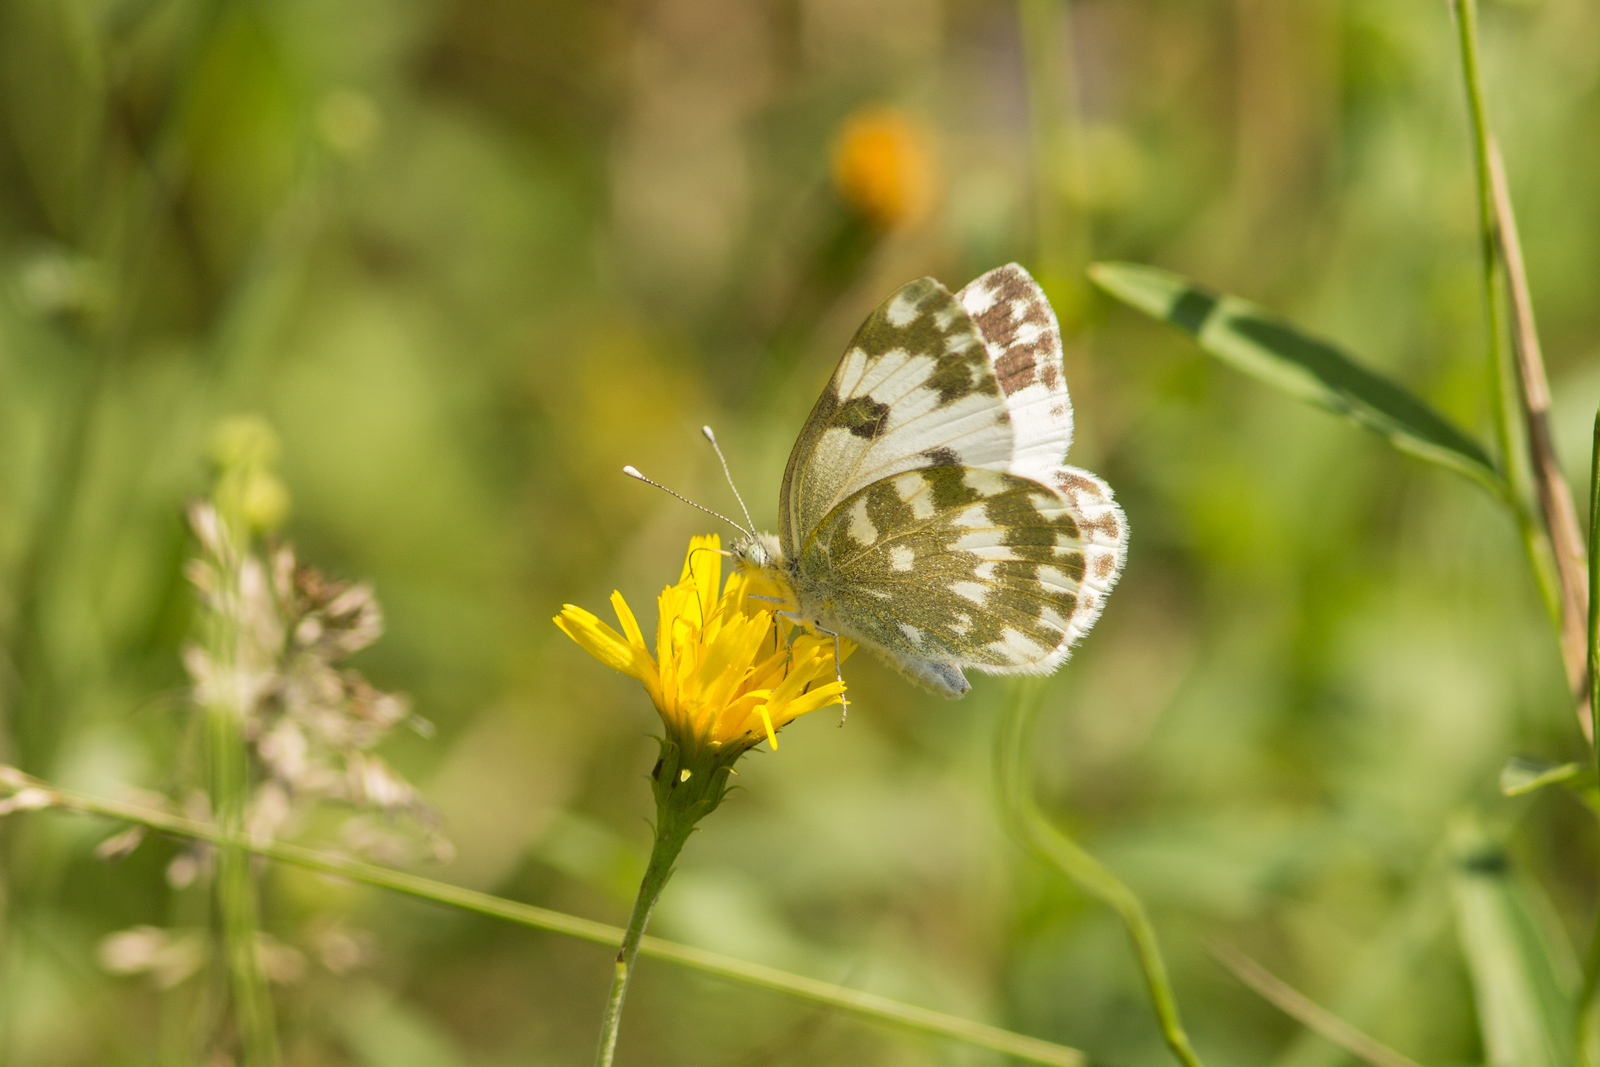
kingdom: Animalia
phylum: Arthropoda
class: Insecta
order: Lepidoptera
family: Pieridae
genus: Pontia
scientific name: Pontia edusa
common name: Eastern bath white
